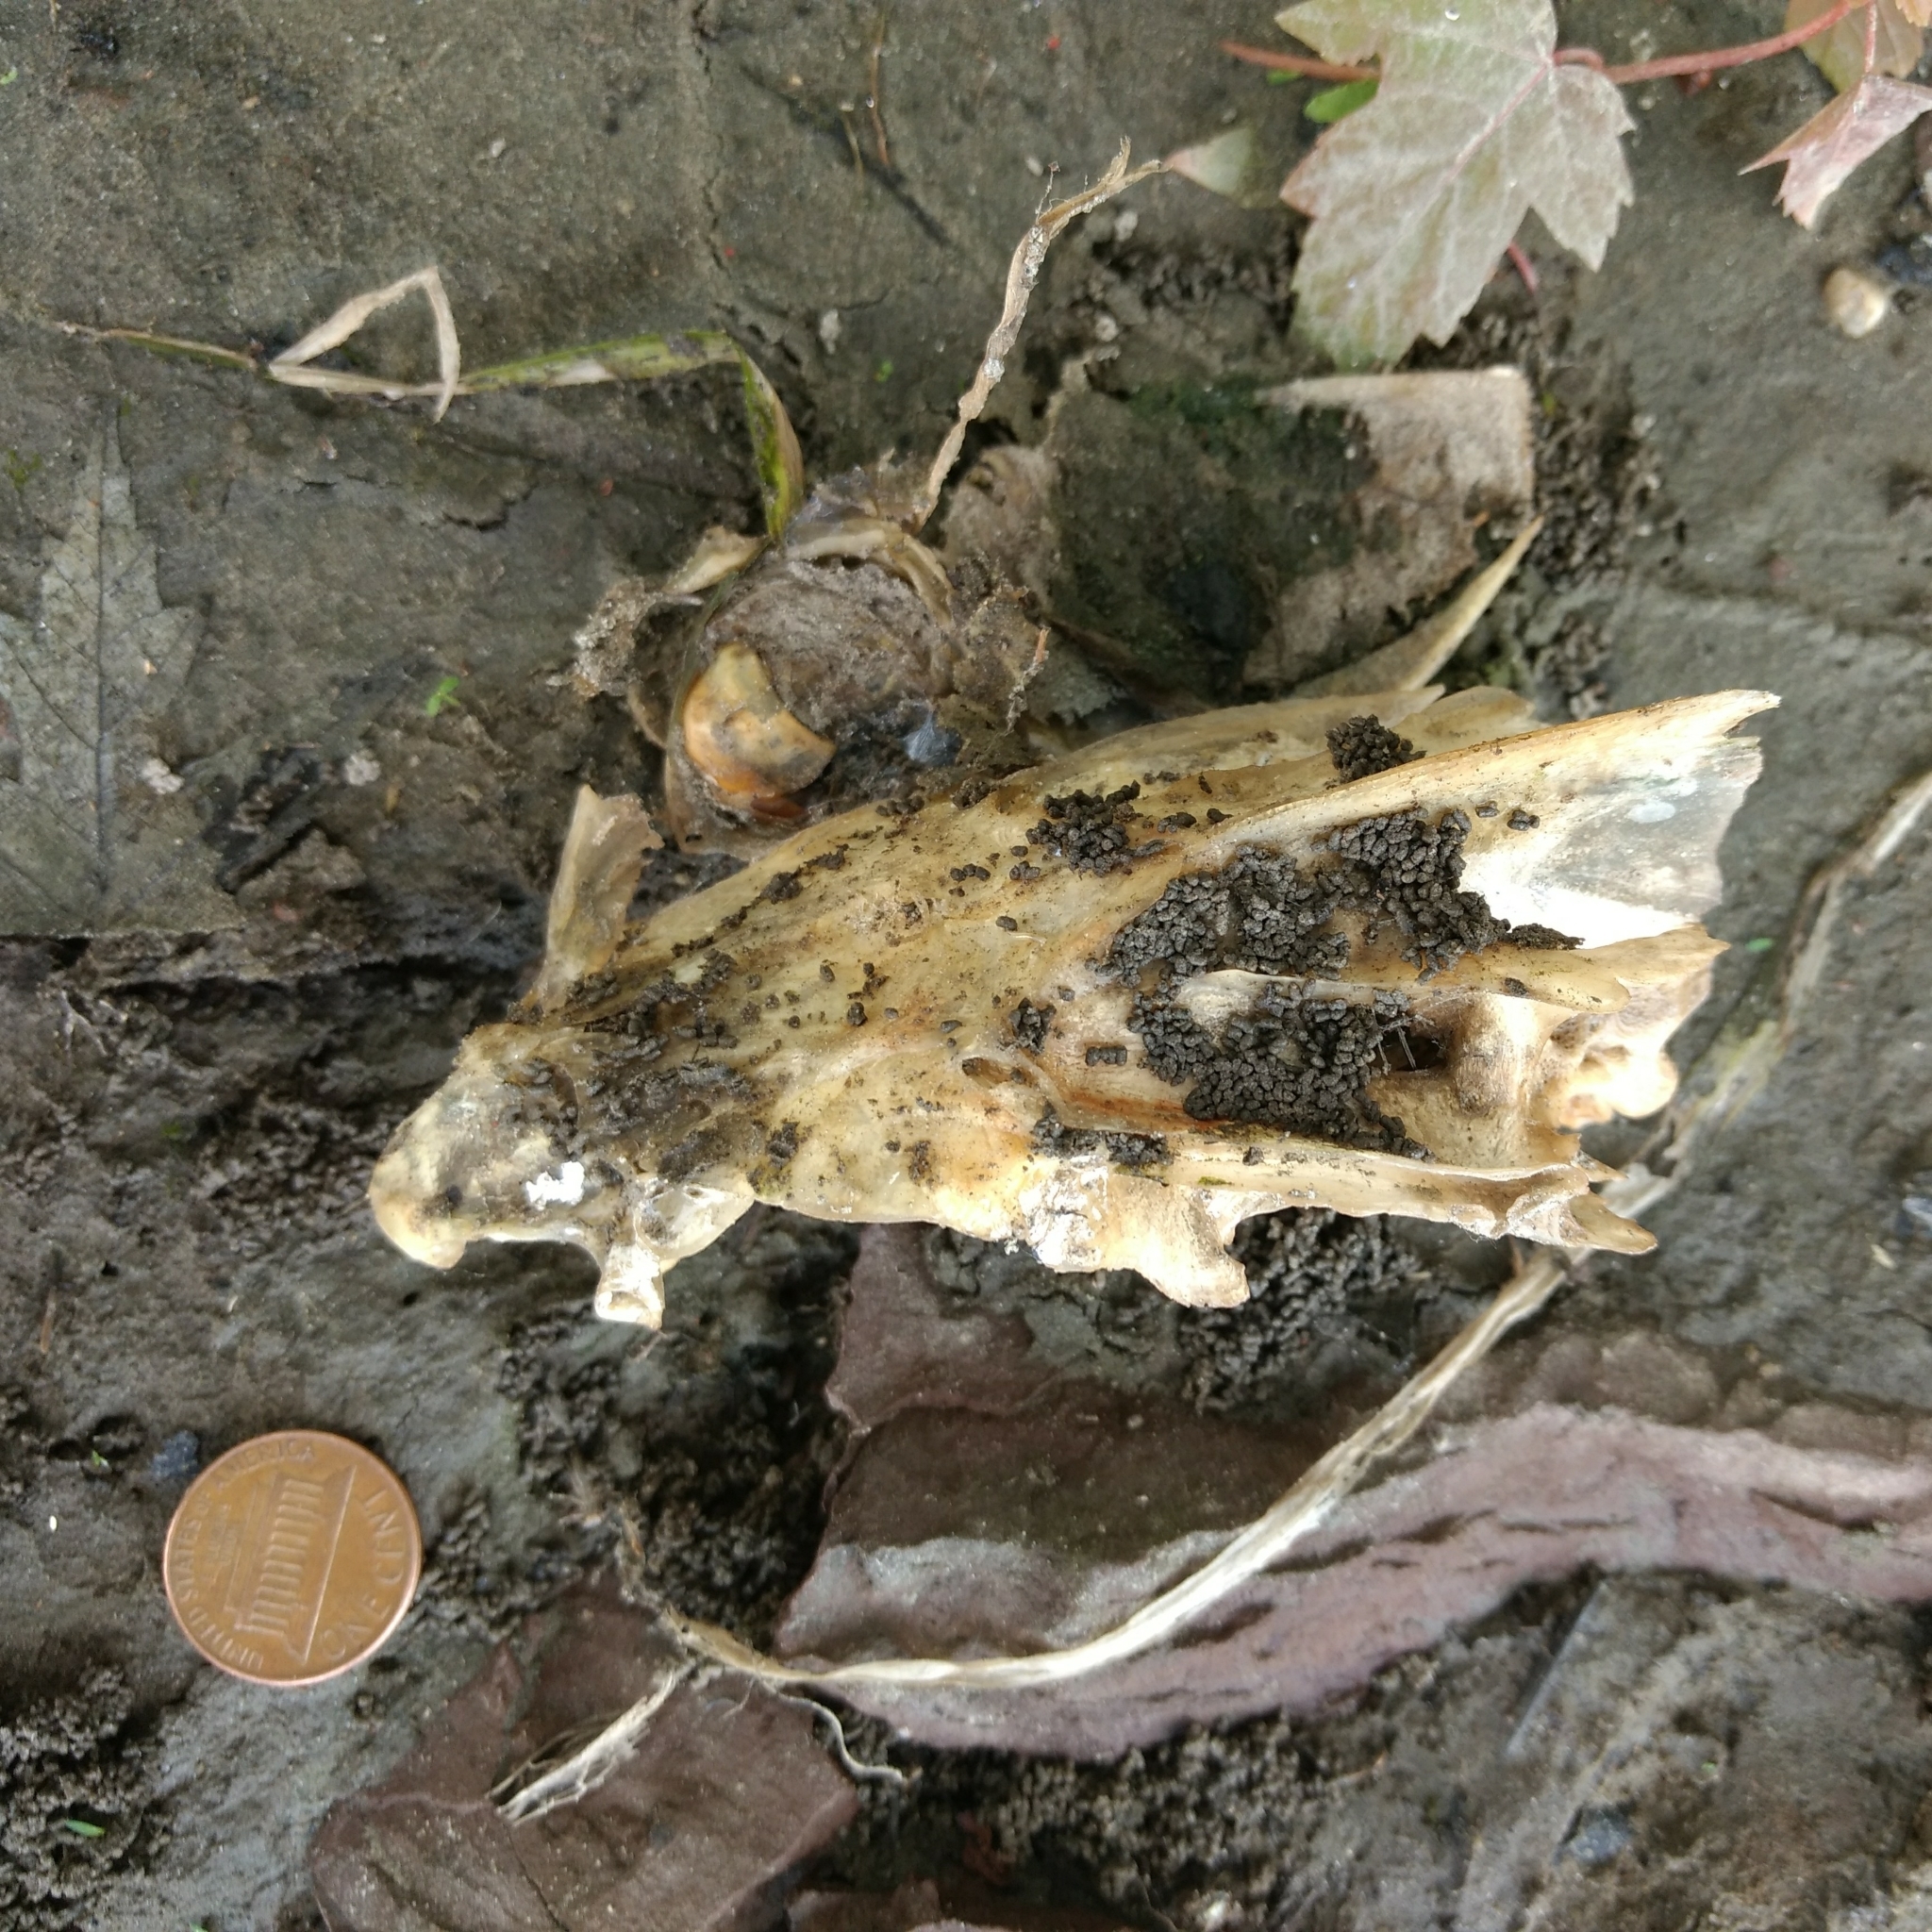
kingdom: Animalia
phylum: Chordata
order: Perciformes
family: Moronidae
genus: Morone
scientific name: Morone saxatilis
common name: Striped bass
